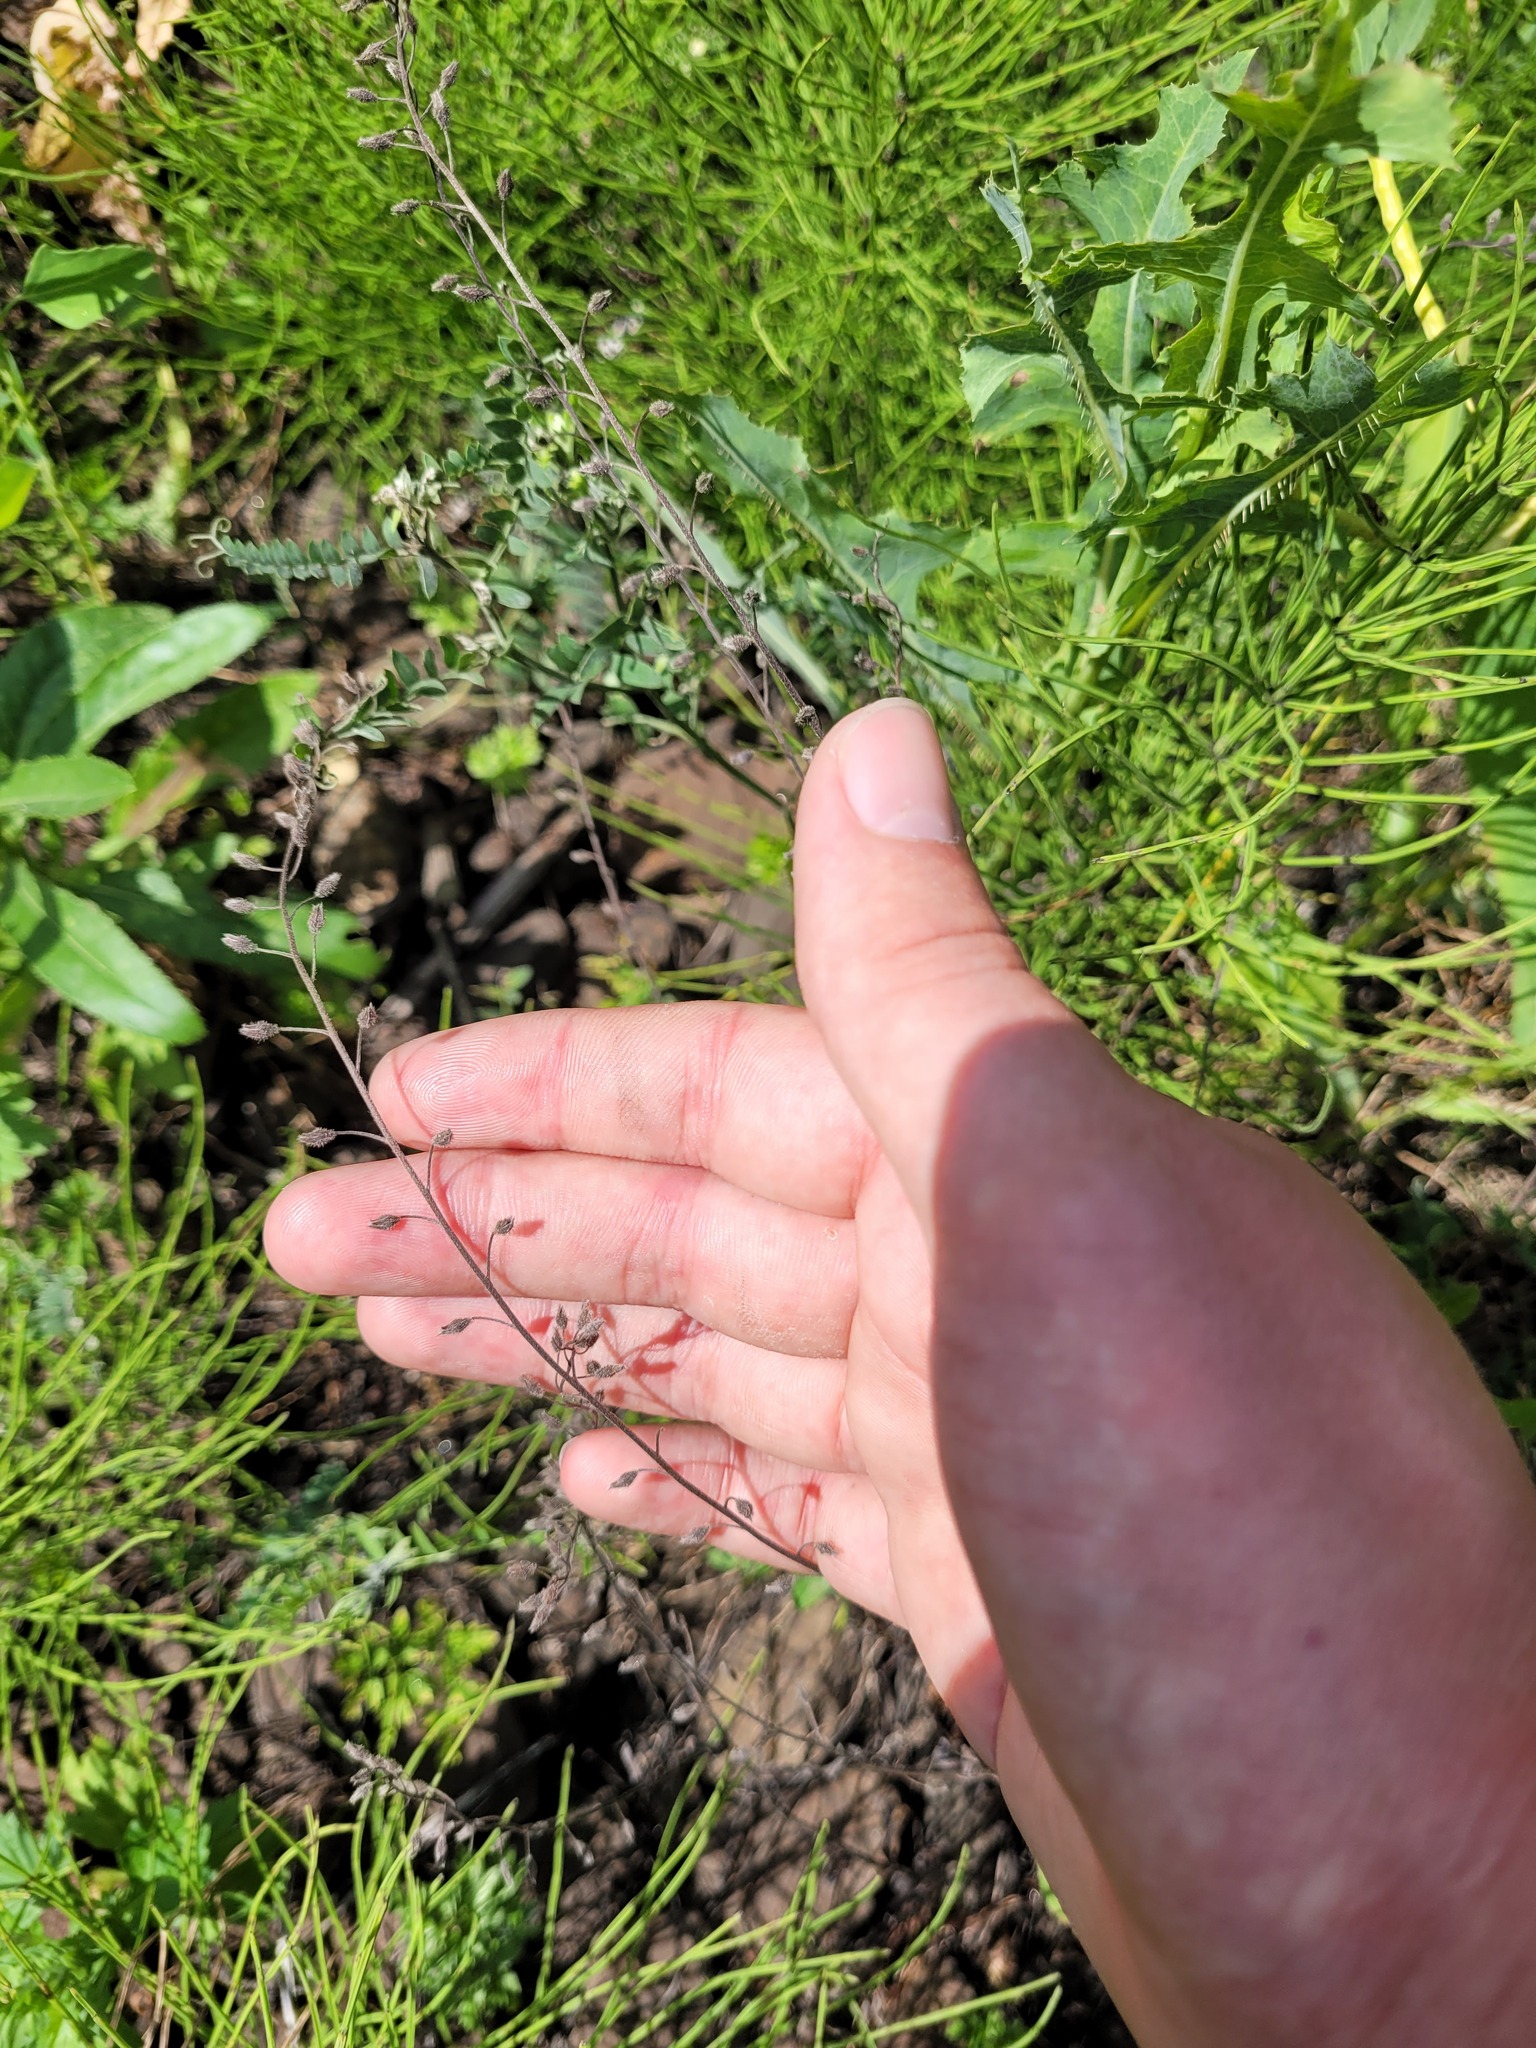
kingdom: Plantae
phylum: Tracheophyta
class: Magnoliopsida
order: Boraginales
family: Boraginaceae
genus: Myosotis
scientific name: Myosotis arvensis
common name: Field forget-me-not
